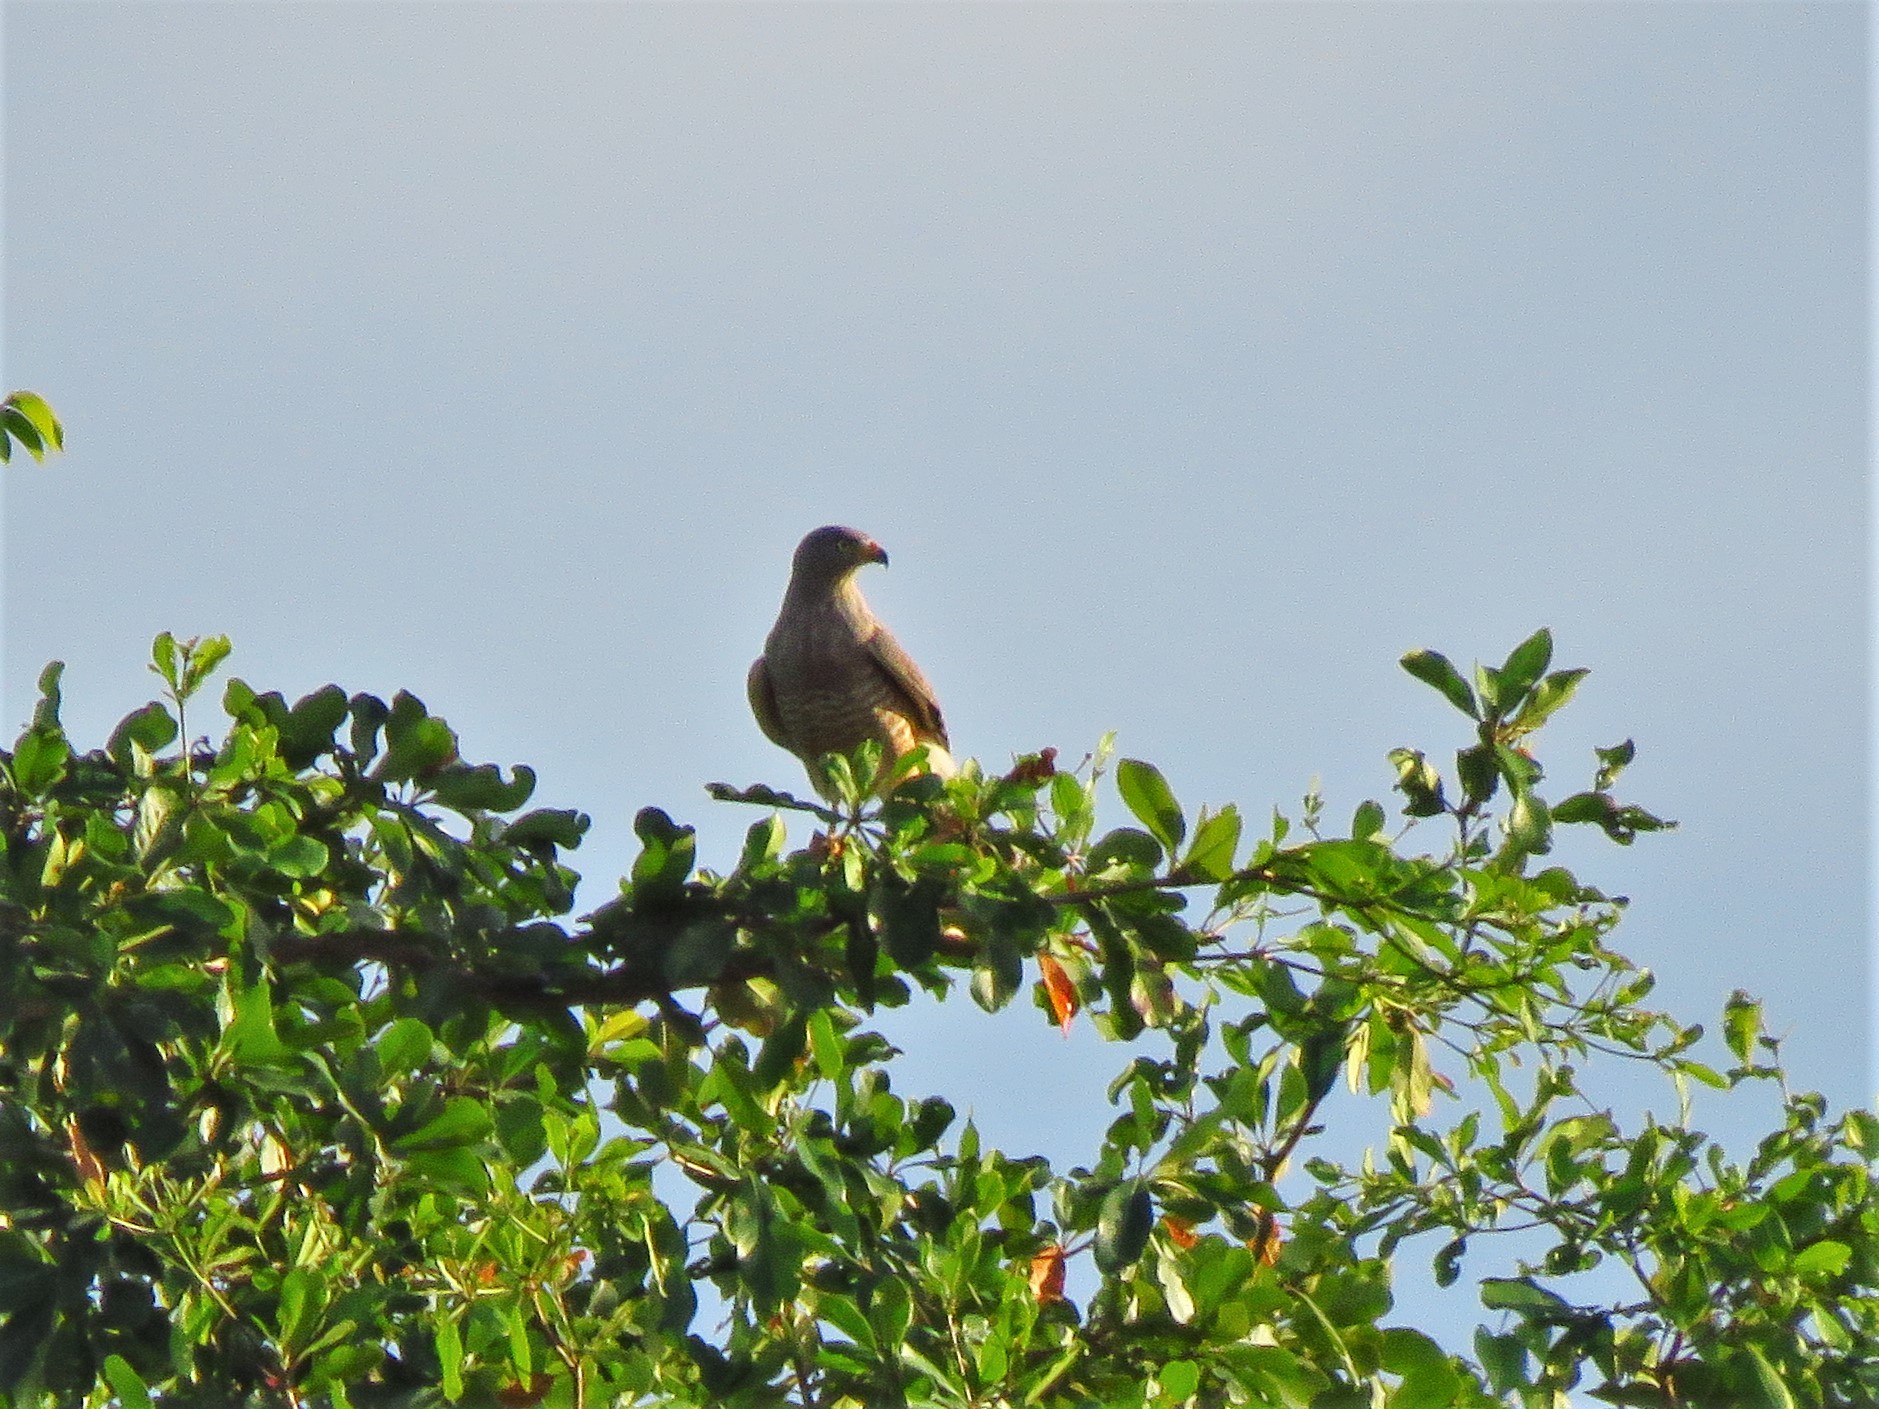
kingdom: Animalia
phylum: Chordata
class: Aves
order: Accipitriformes
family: Accipitridae
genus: Rupornis
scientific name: Rupornis magnirostris
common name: Roadside hawk
